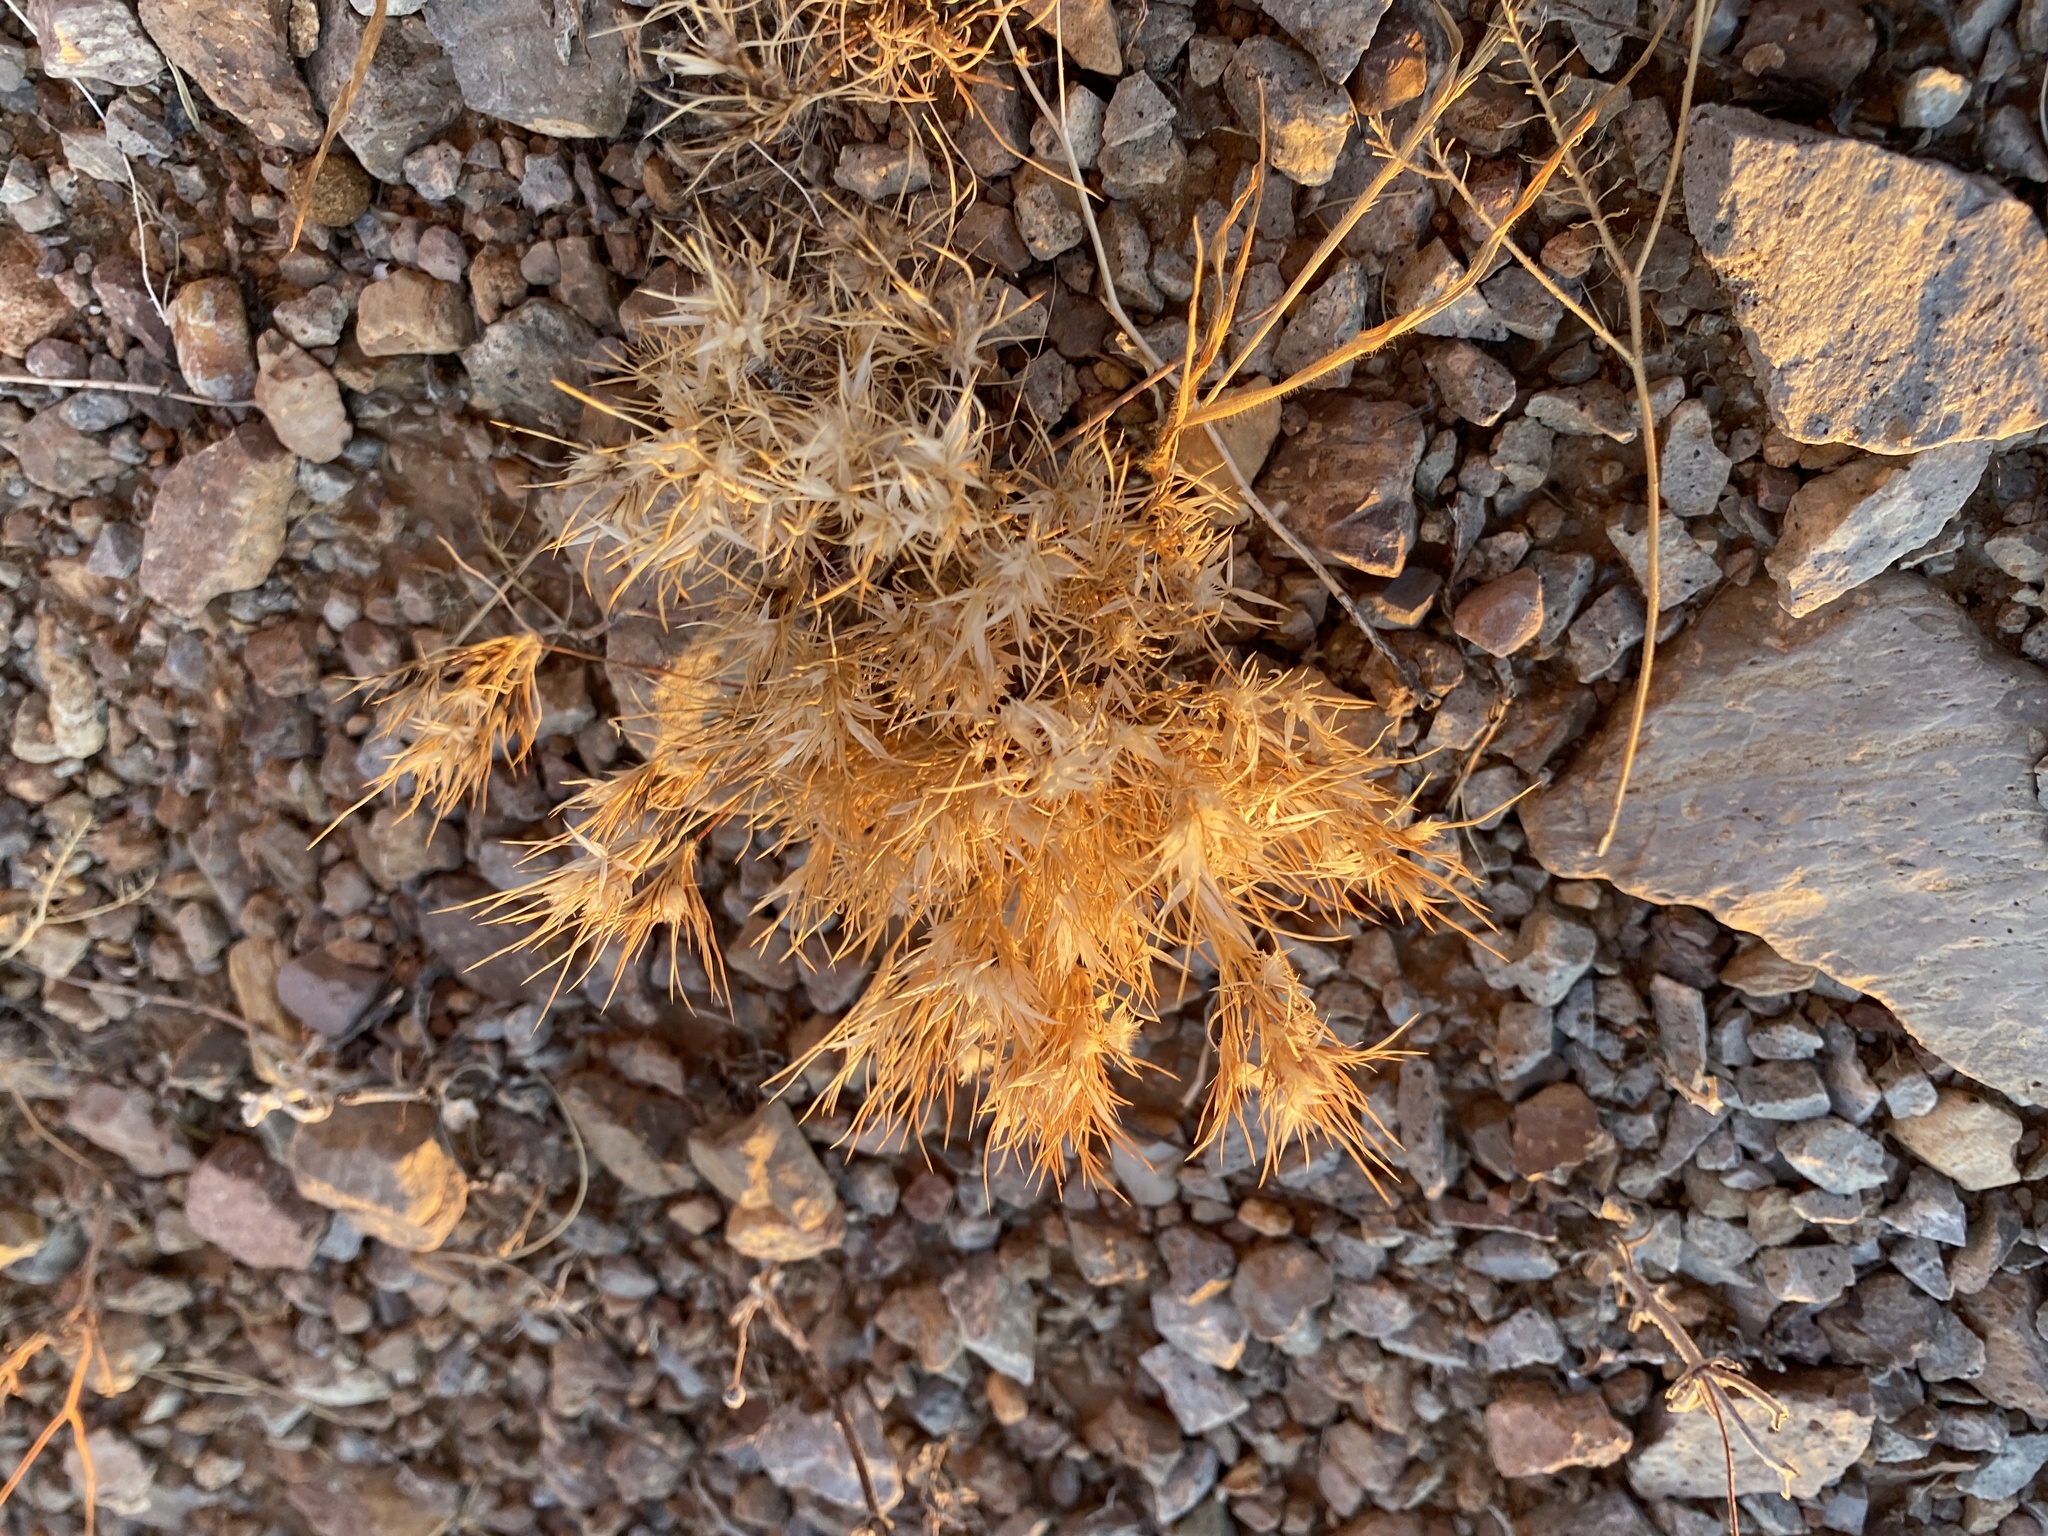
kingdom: Plantae
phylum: Tracheophyta
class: Liliopsida
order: Poales
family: Poaceae
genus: Dasyochloa
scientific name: Dasyochloa pulchella
